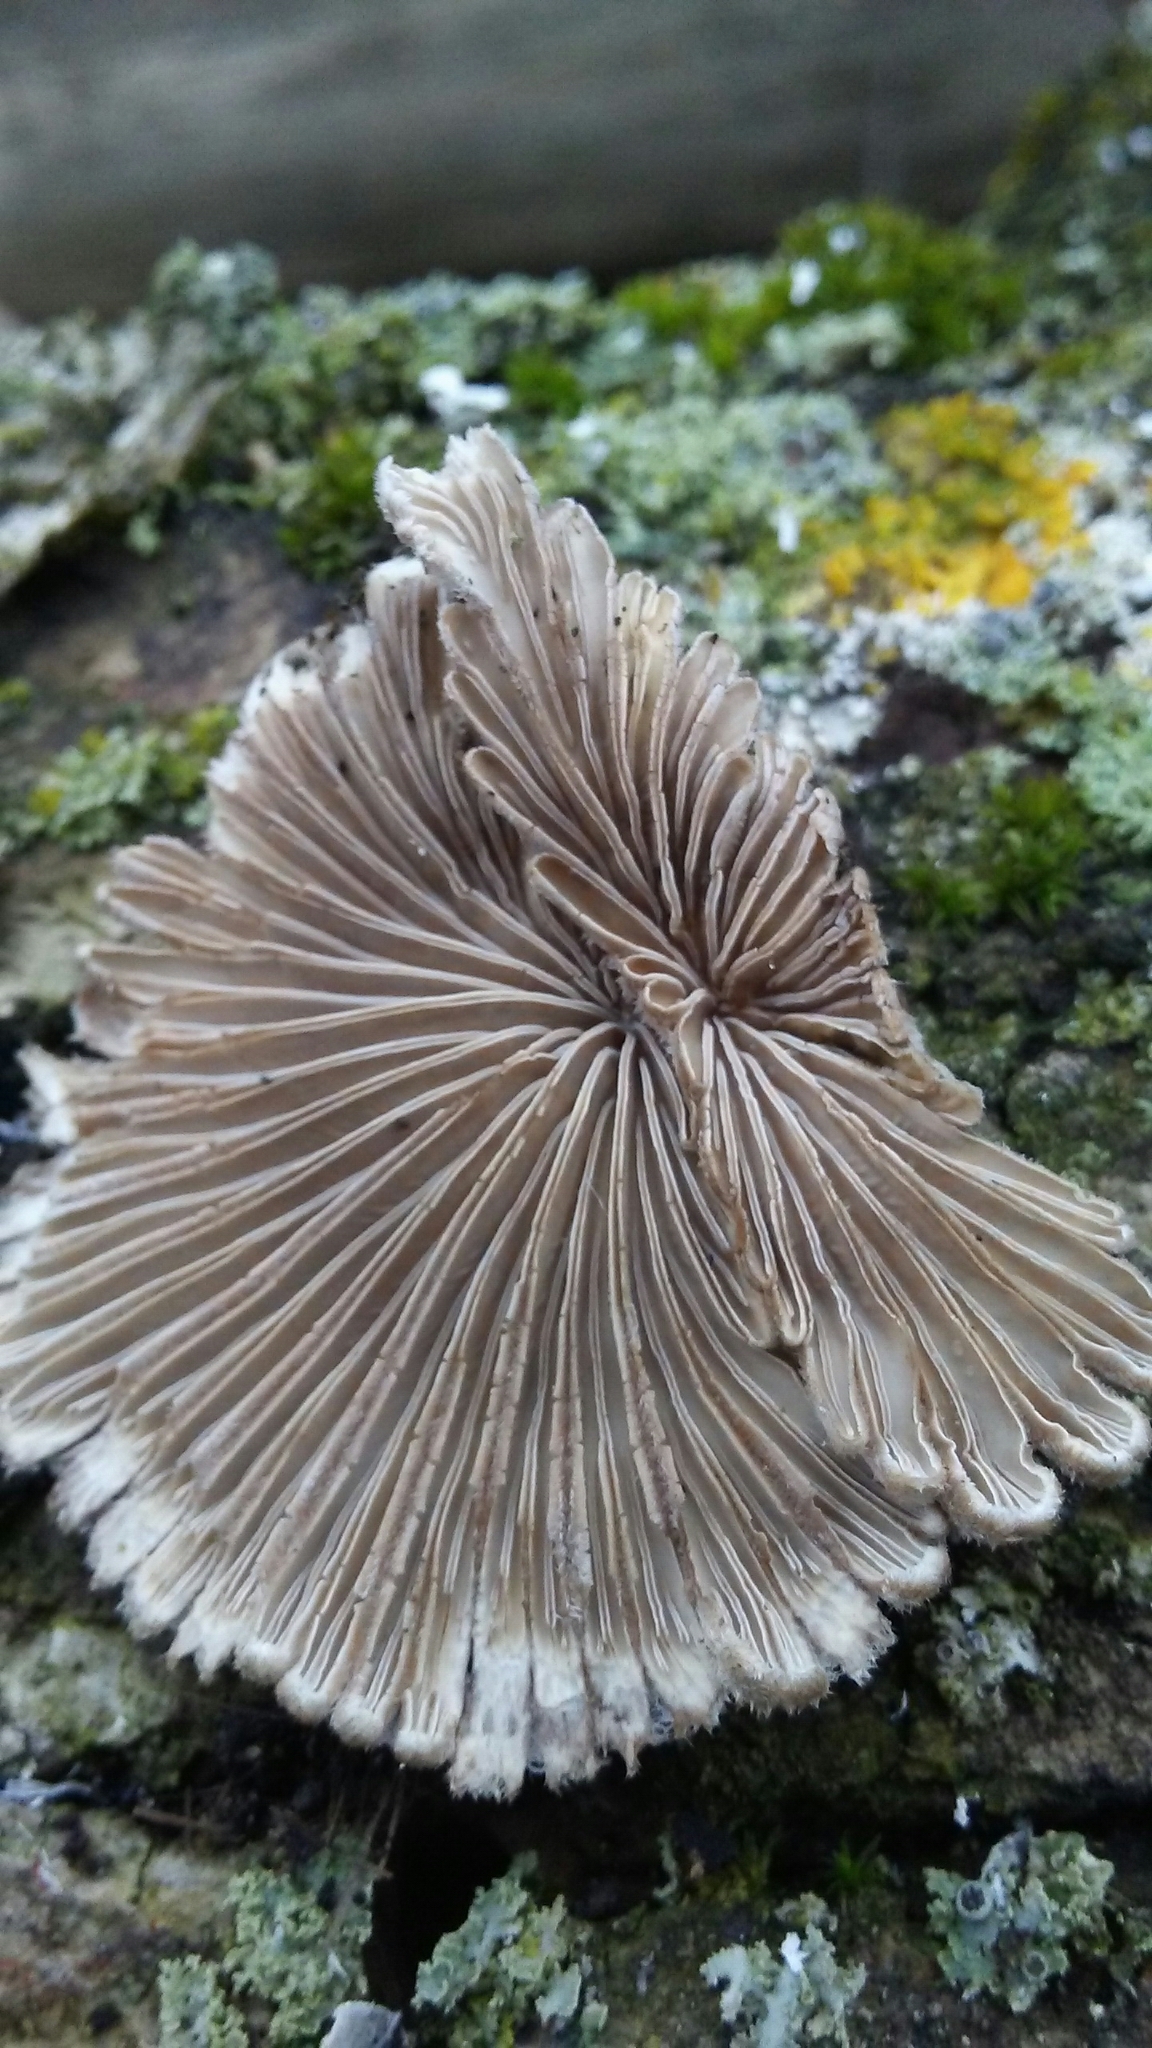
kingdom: Fungi
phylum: Basidiomycota
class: Agaricomycetes
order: Agaricales
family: Schizophyllaceae
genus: Schizophyllum
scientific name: Schizophyllum commune
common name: Common porecrust
